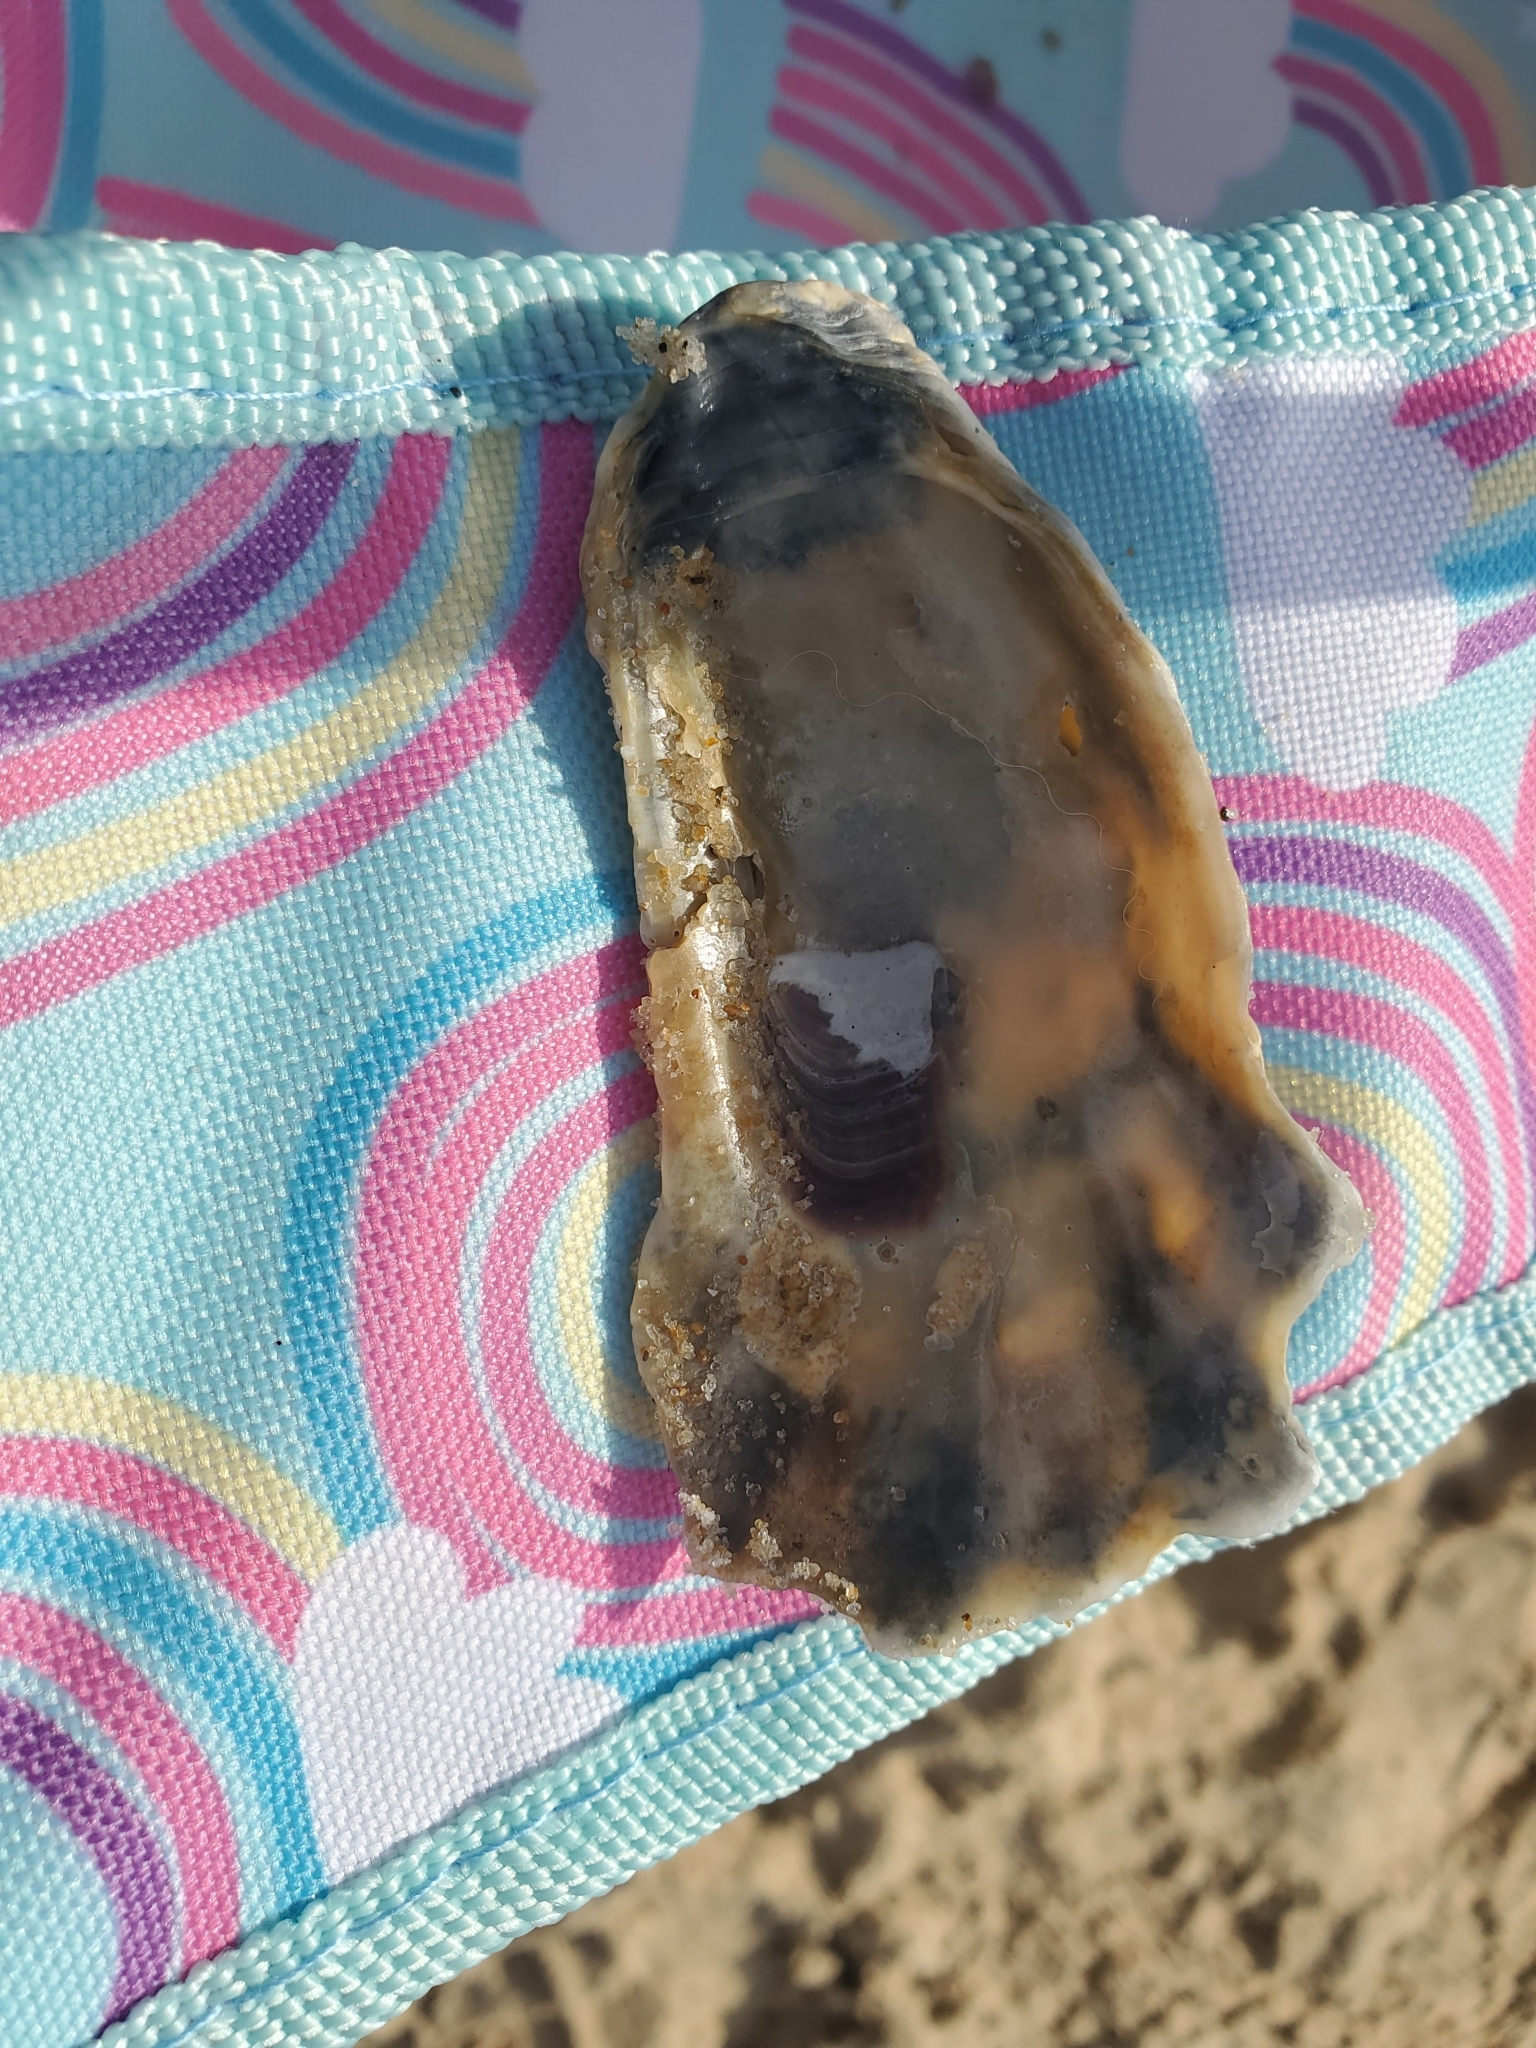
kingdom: Animalia
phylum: Mollusca
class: Bivalvia
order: Ostreida
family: Ostreidae
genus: Crassostrea
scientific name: Crassostrea virginica
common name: American oyster
